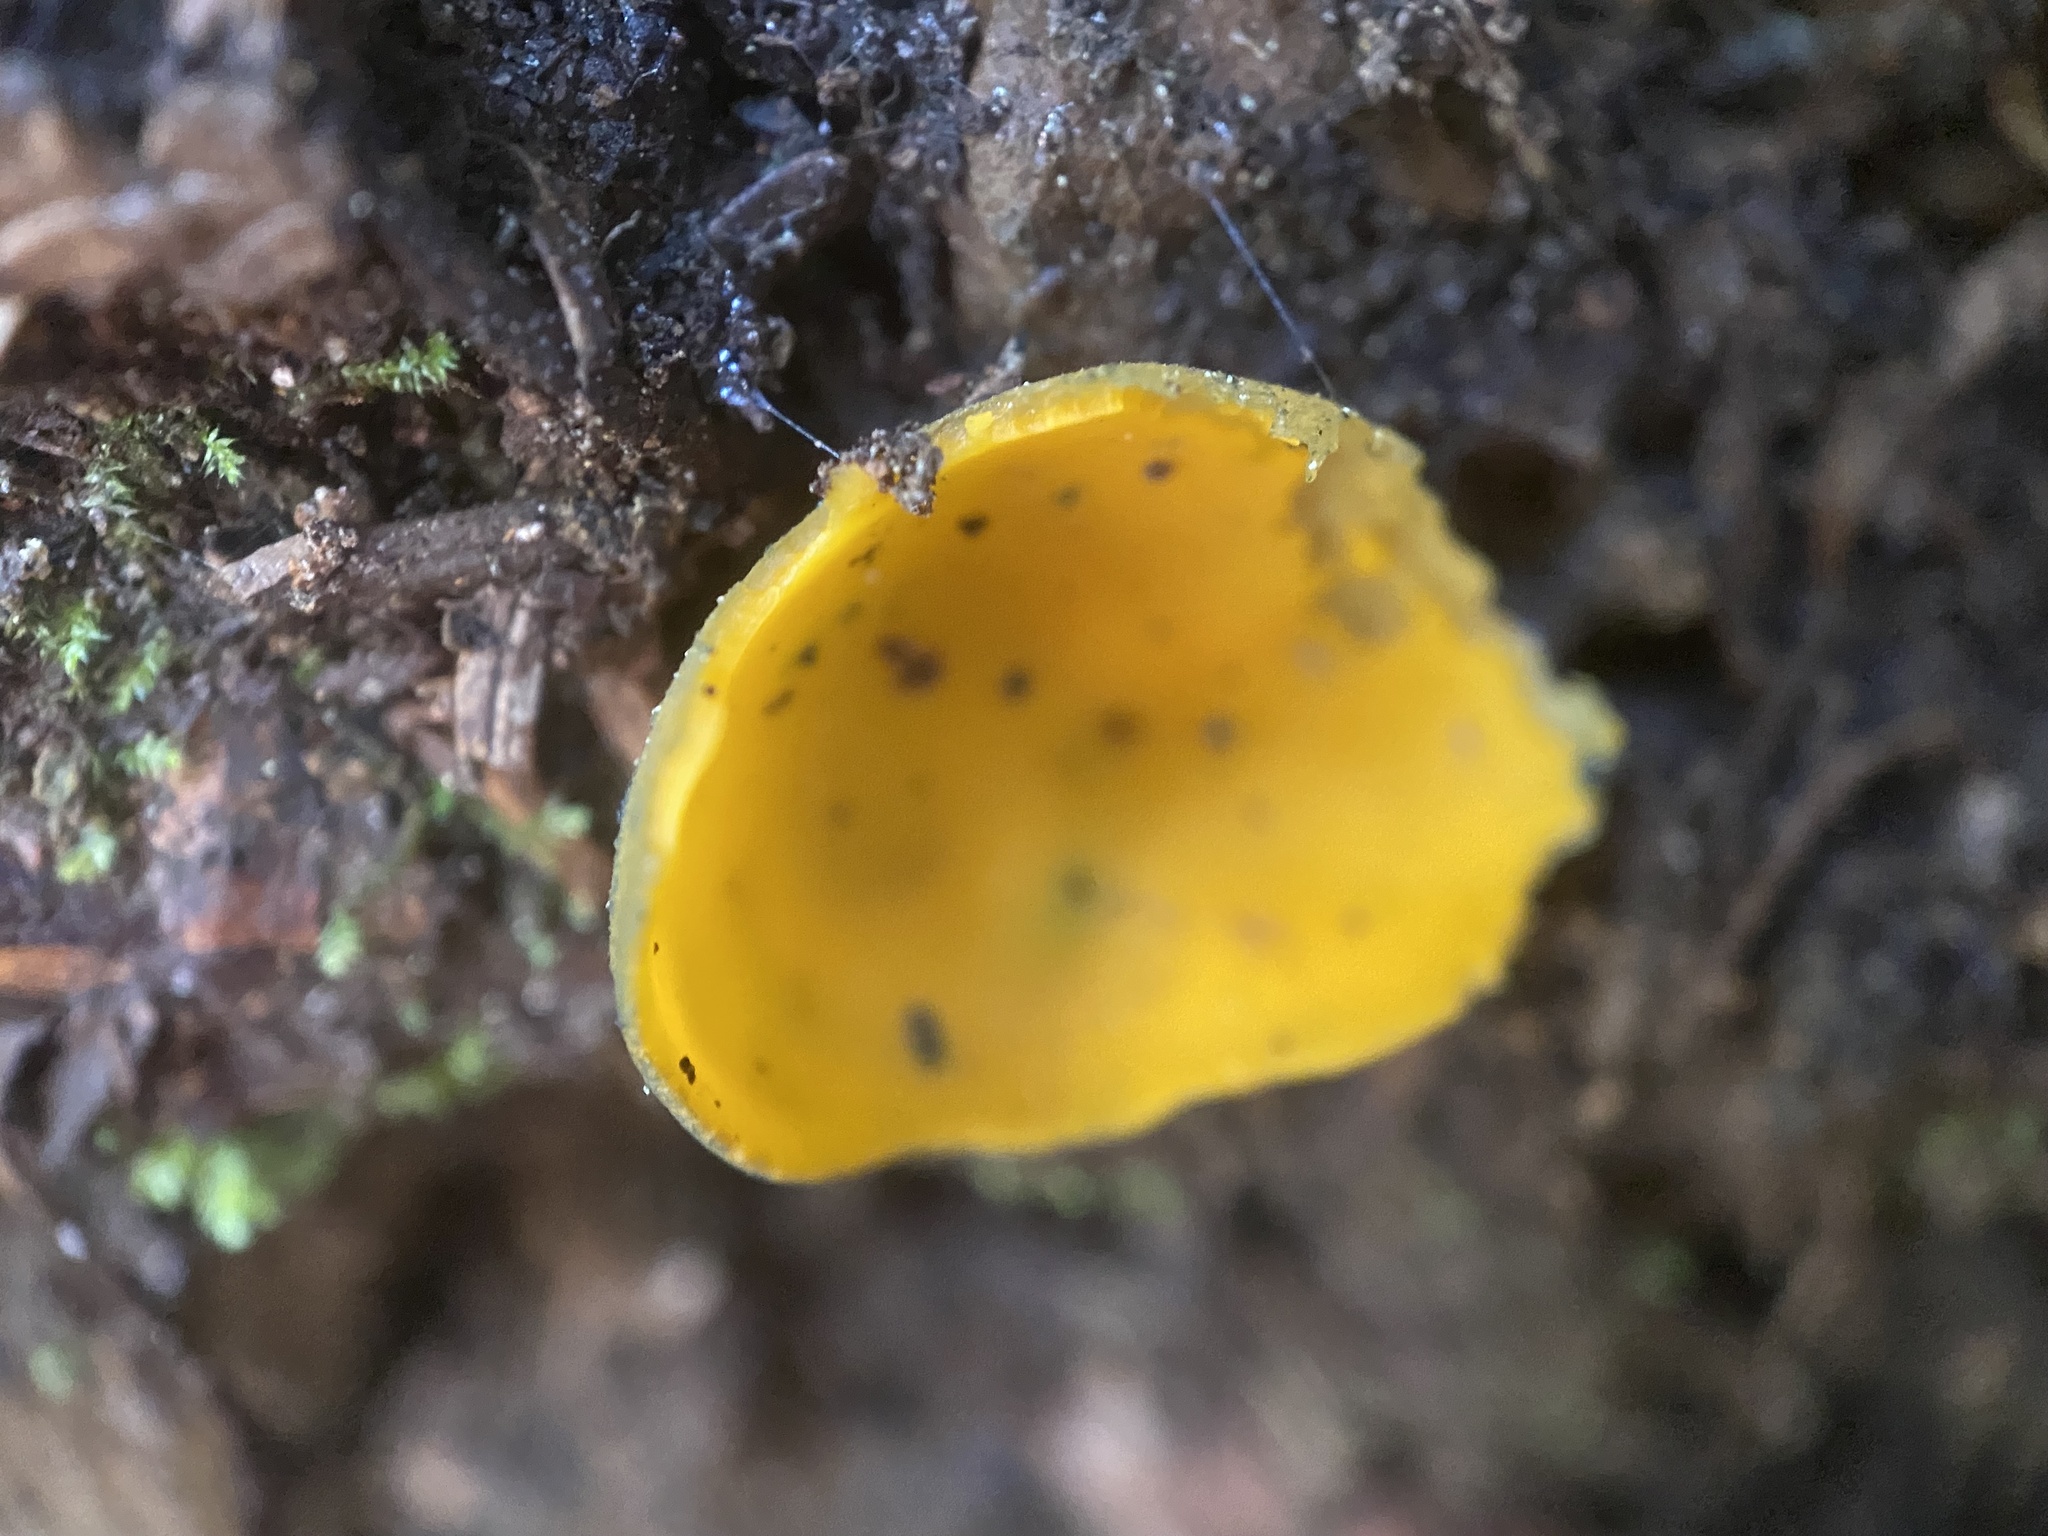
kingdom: Fungi
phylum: Ascomycota
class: Pezizomycetes
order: Pezizales
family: Caloscyphaceae
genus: Caloscypha
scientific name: Caloscypha fulgens
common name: Golden cup
